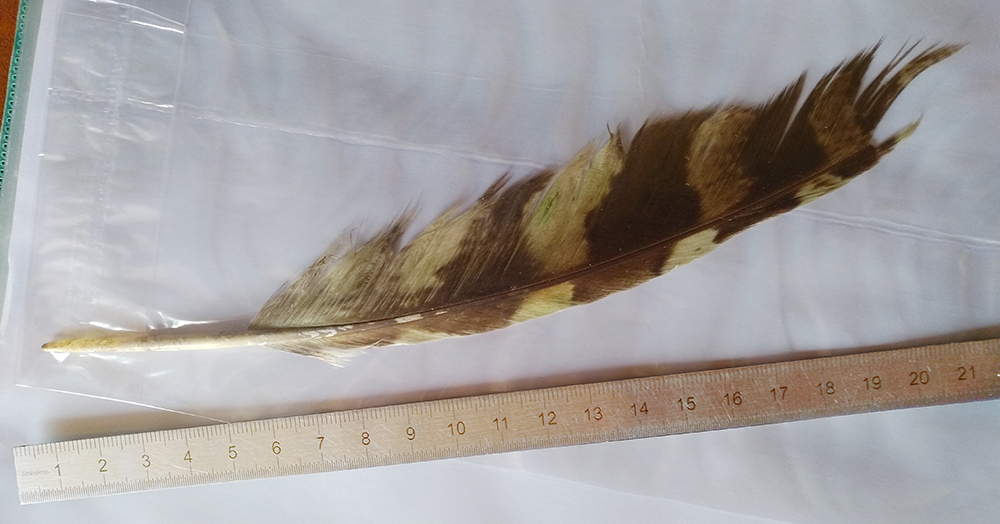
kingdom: Animalia
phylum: Chordata
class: Aves
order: Strigiformes
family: Strigidae
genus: Strix
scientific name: Strix aluco
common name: Tawny owl
